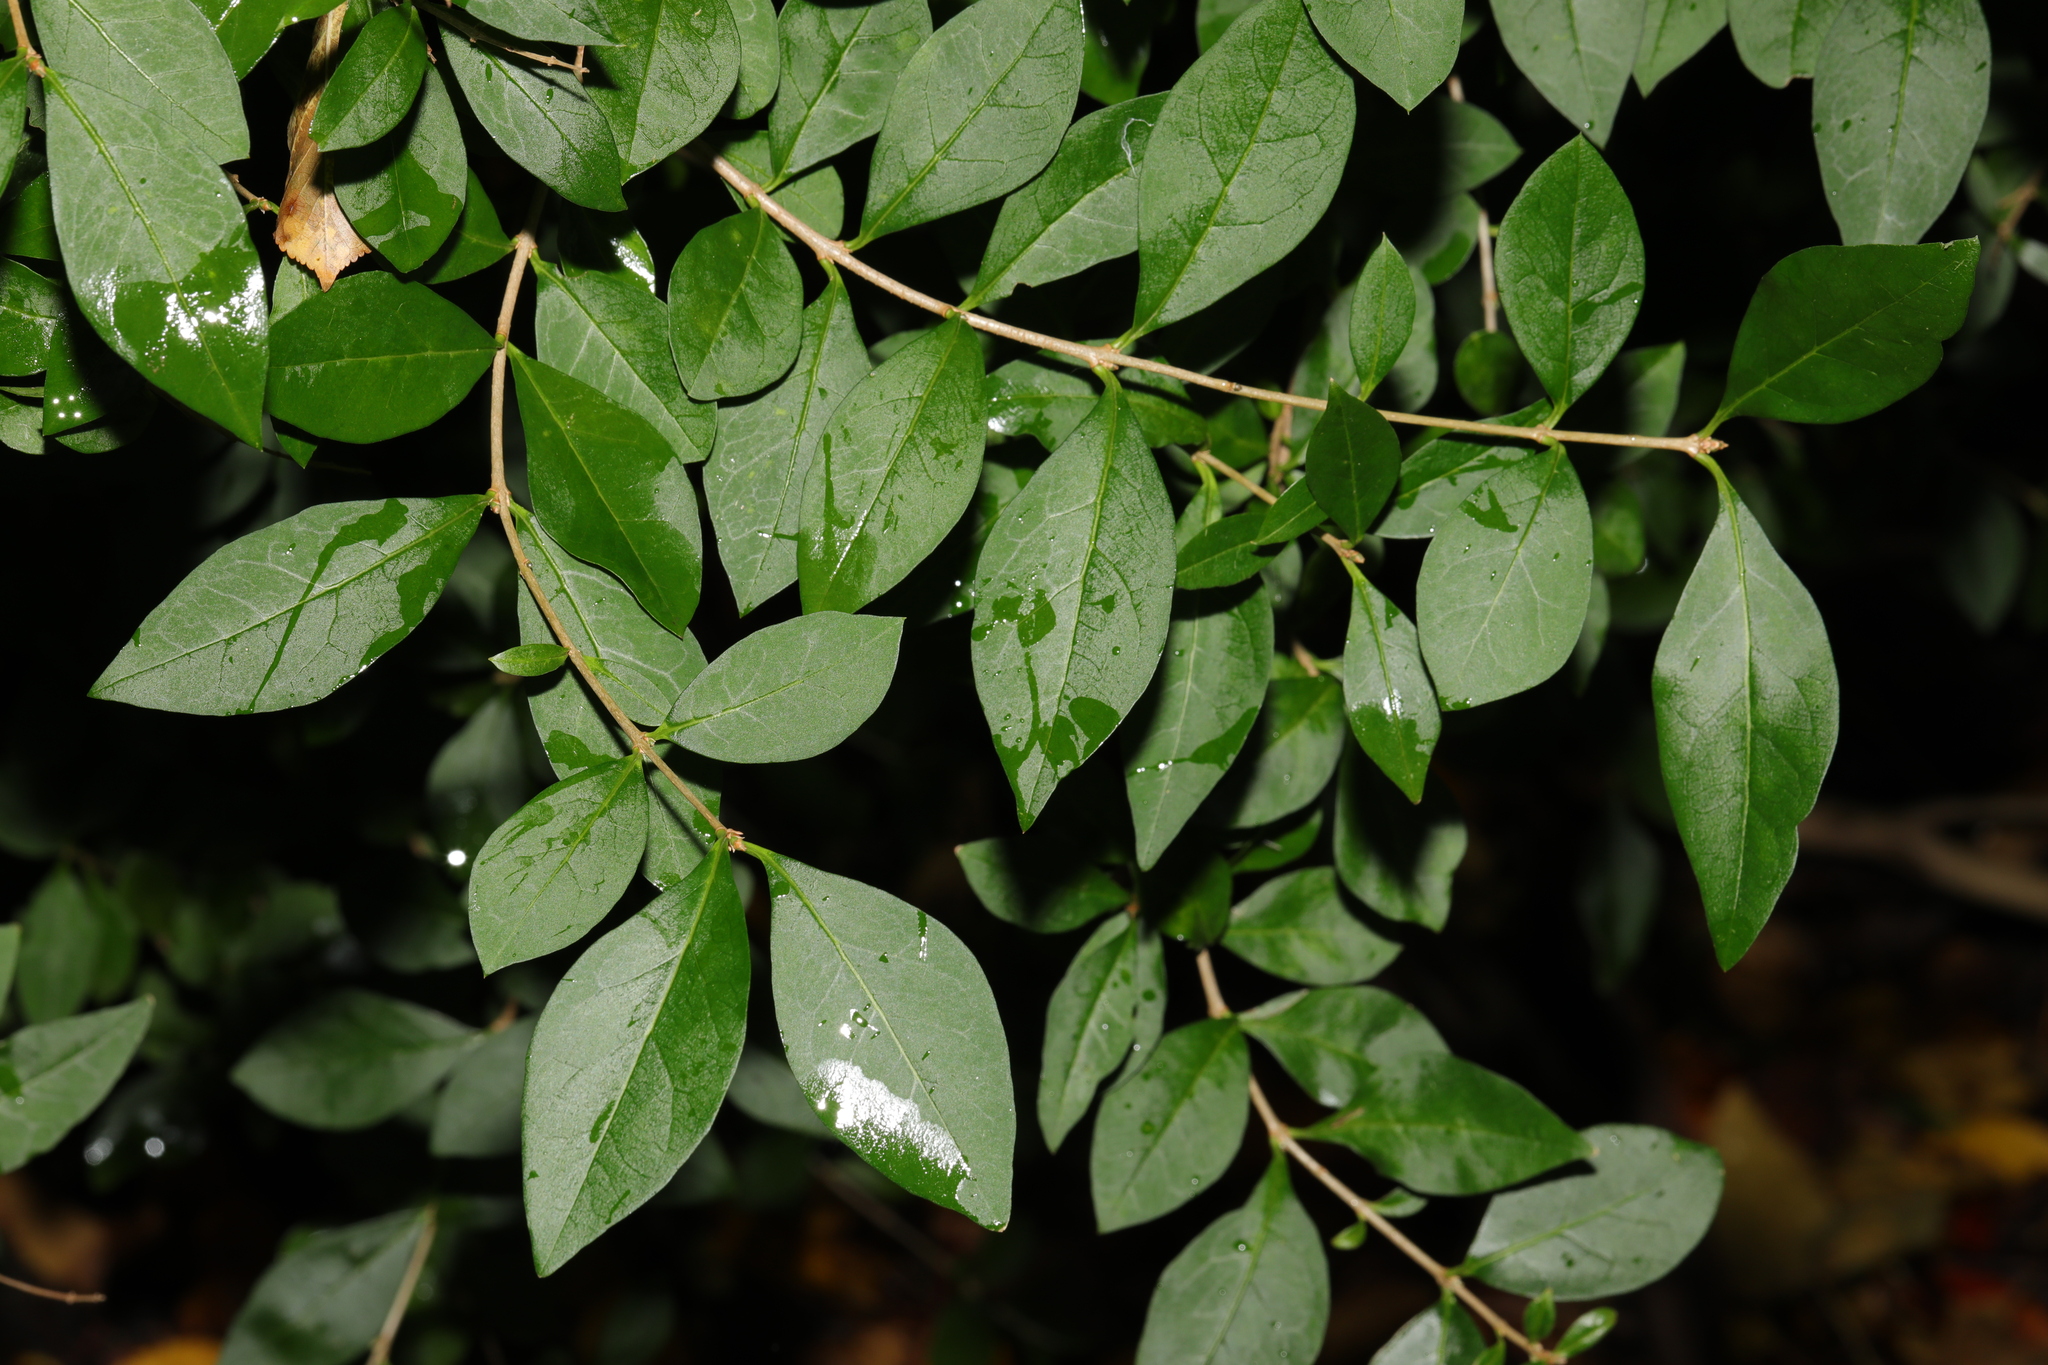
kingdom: Plantae
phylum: Tracheophyta
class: Magnoliopsida
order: Lamiales
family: Oleaceae
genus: Ligustrum
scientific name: Ligustrum ovalifolium
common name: California privet
